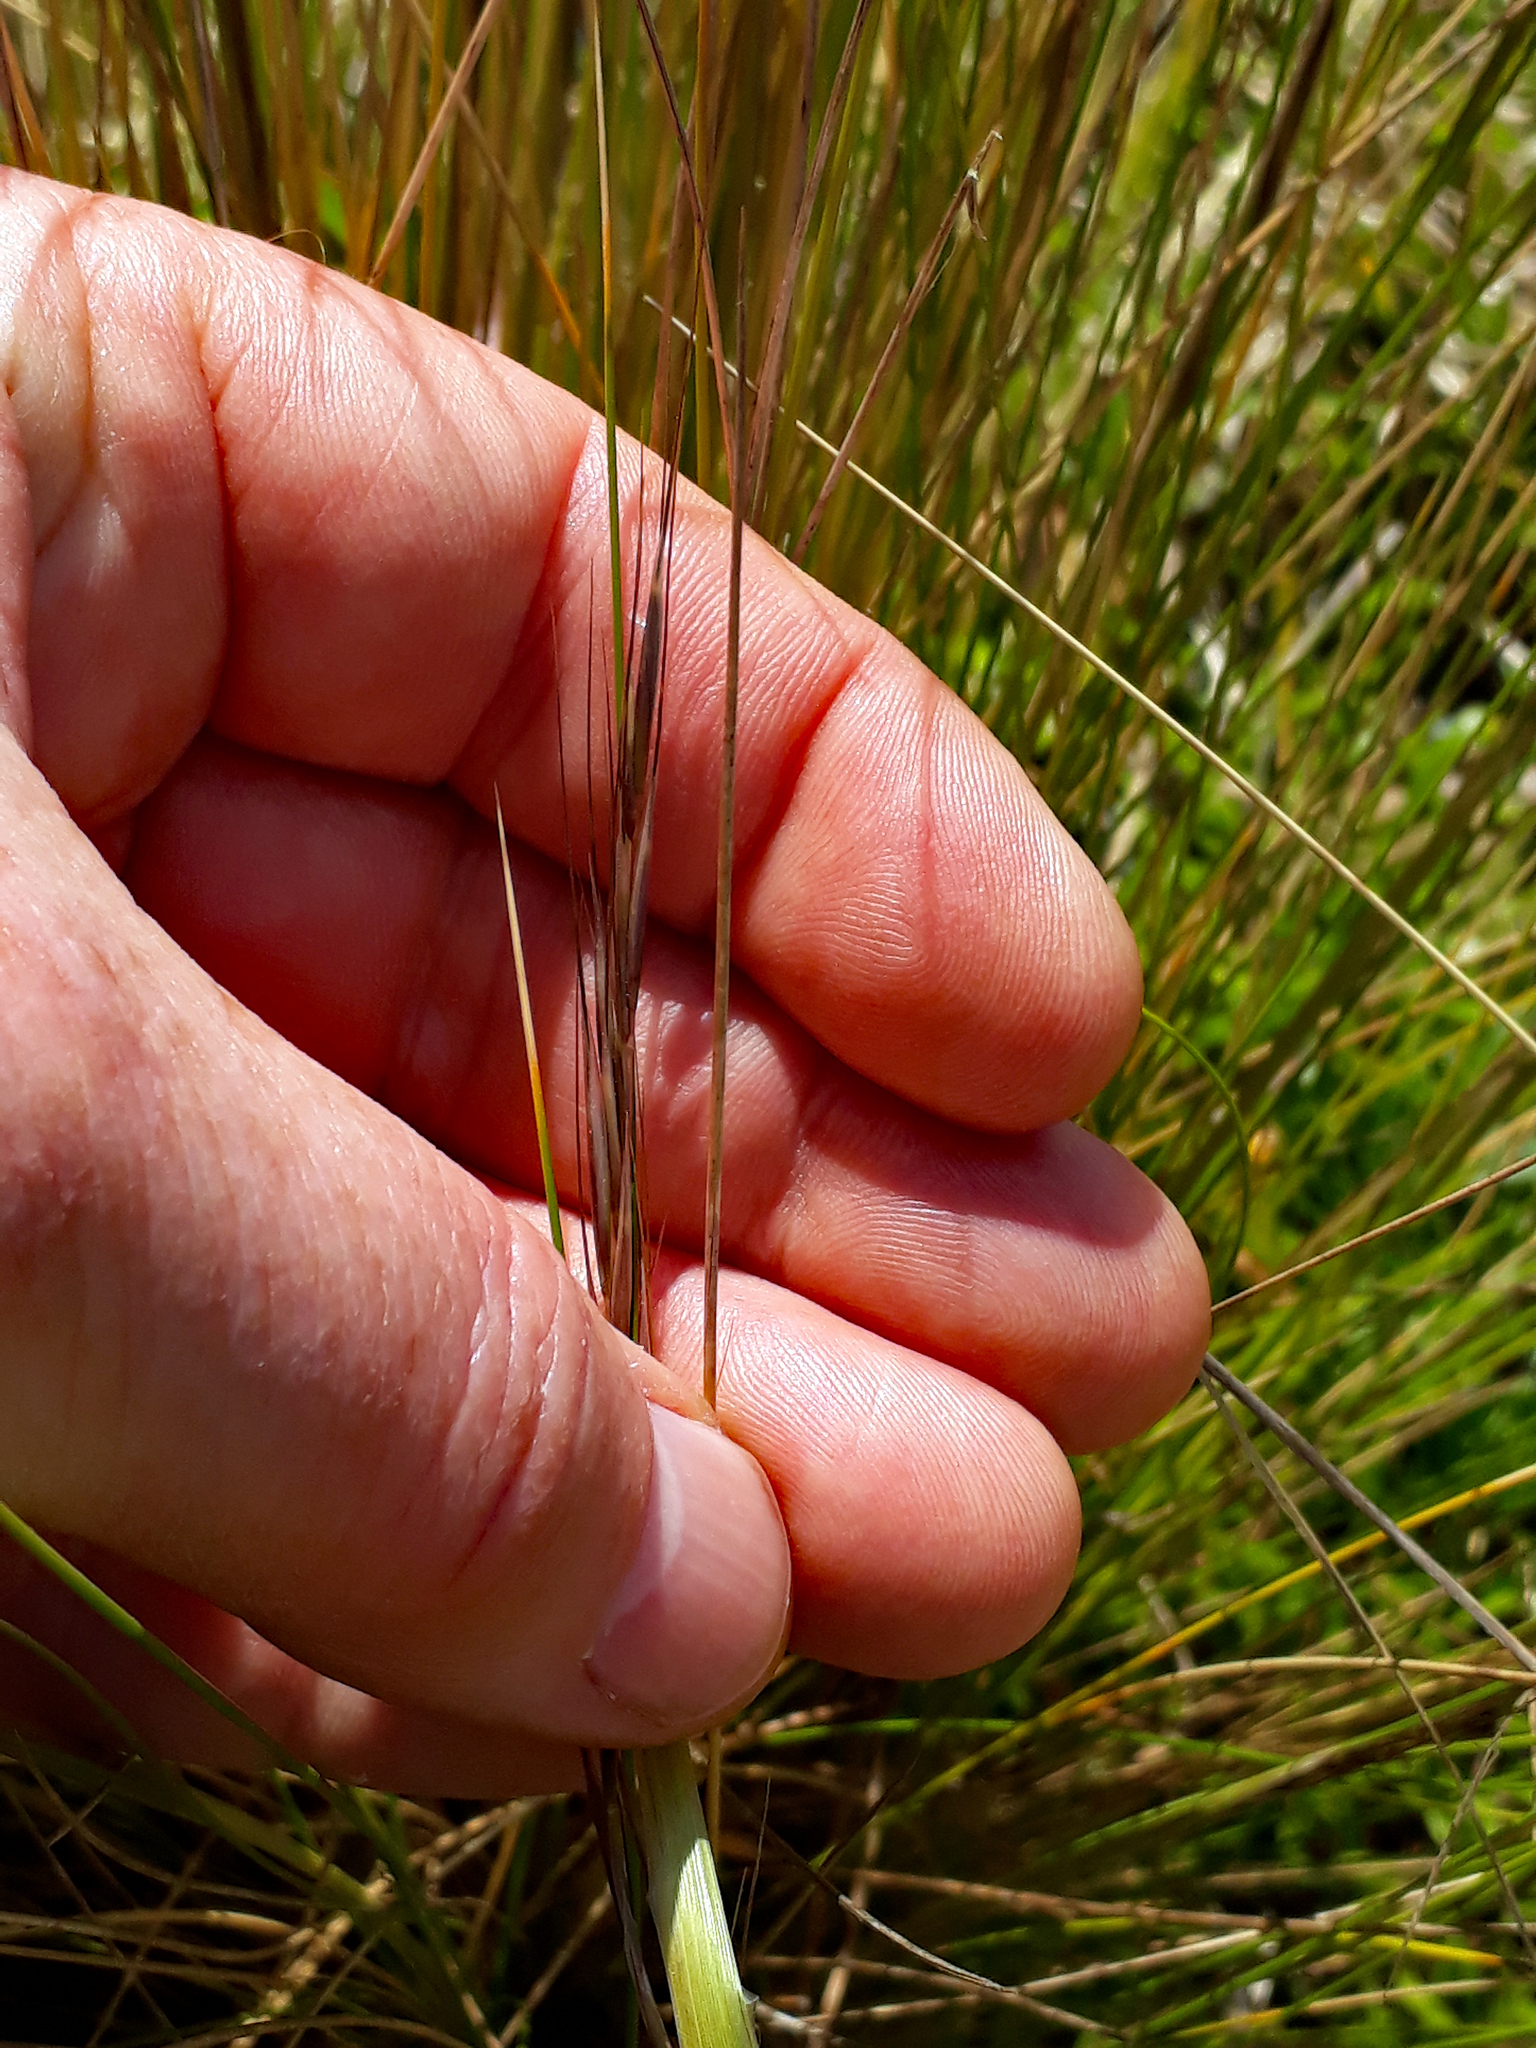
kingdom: Plantae
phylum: Tracheophyta
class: Liliopsida
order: Poales
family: Poaceae
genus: Austrostipa
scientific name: Austrostipa stipoides
